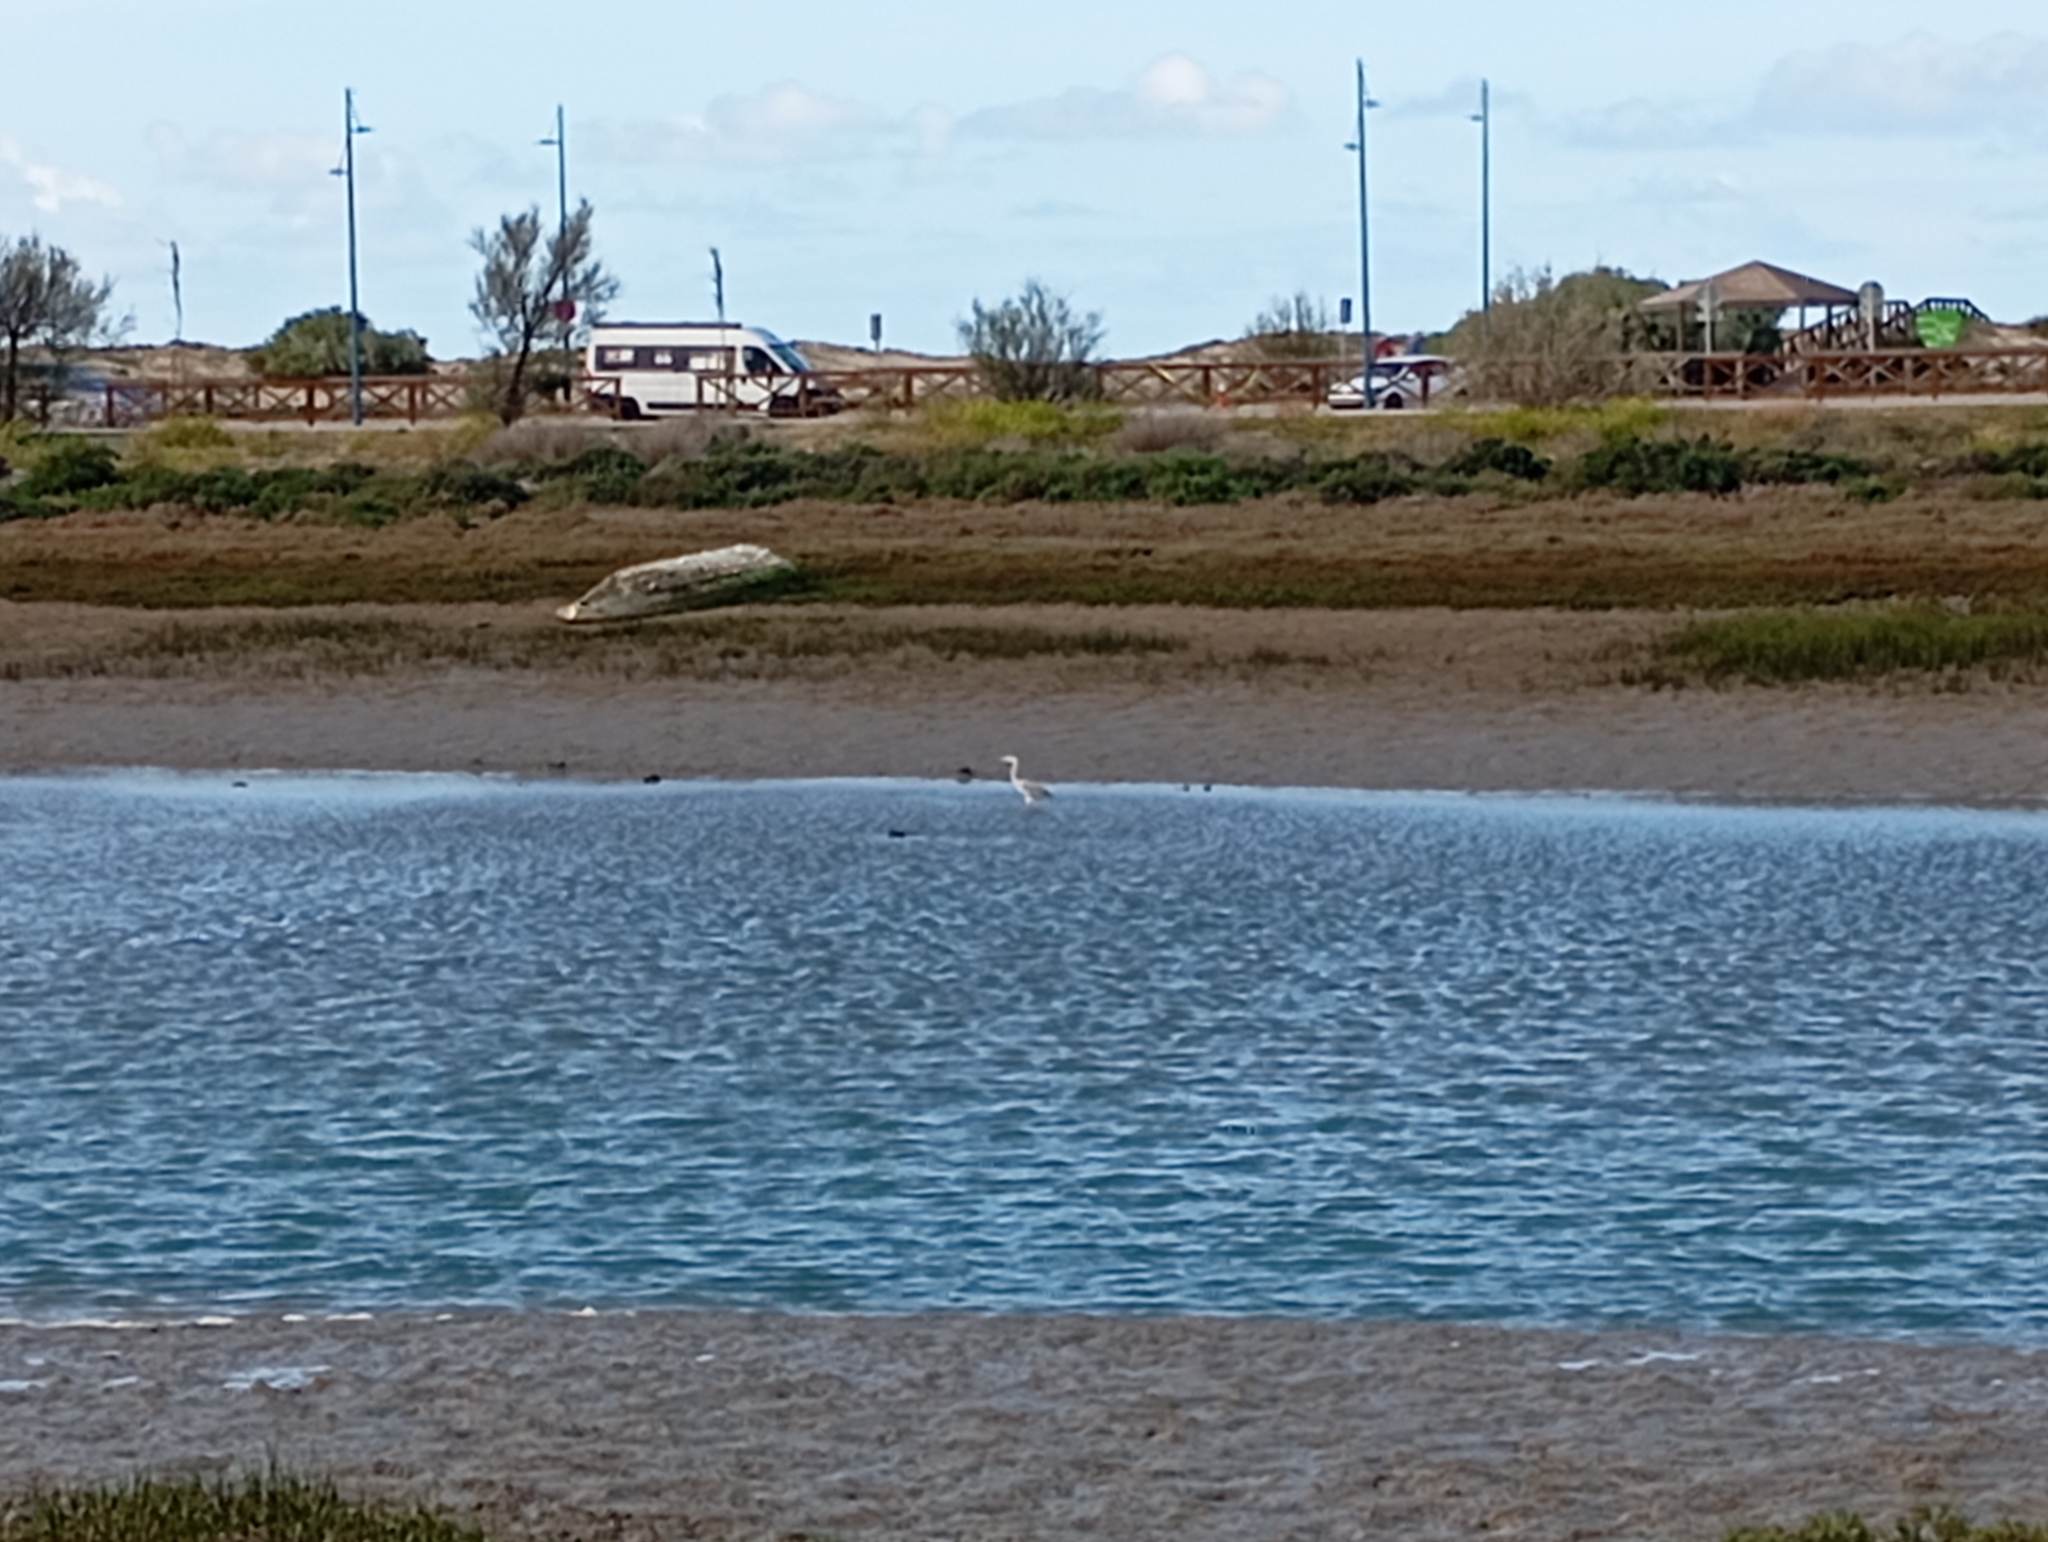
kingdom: Animalia
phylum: Chordata
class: Aves
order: Pelecaniformes
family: Ardeidae
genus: Ardea
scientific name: Ardea cinerea
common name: Grey heron
